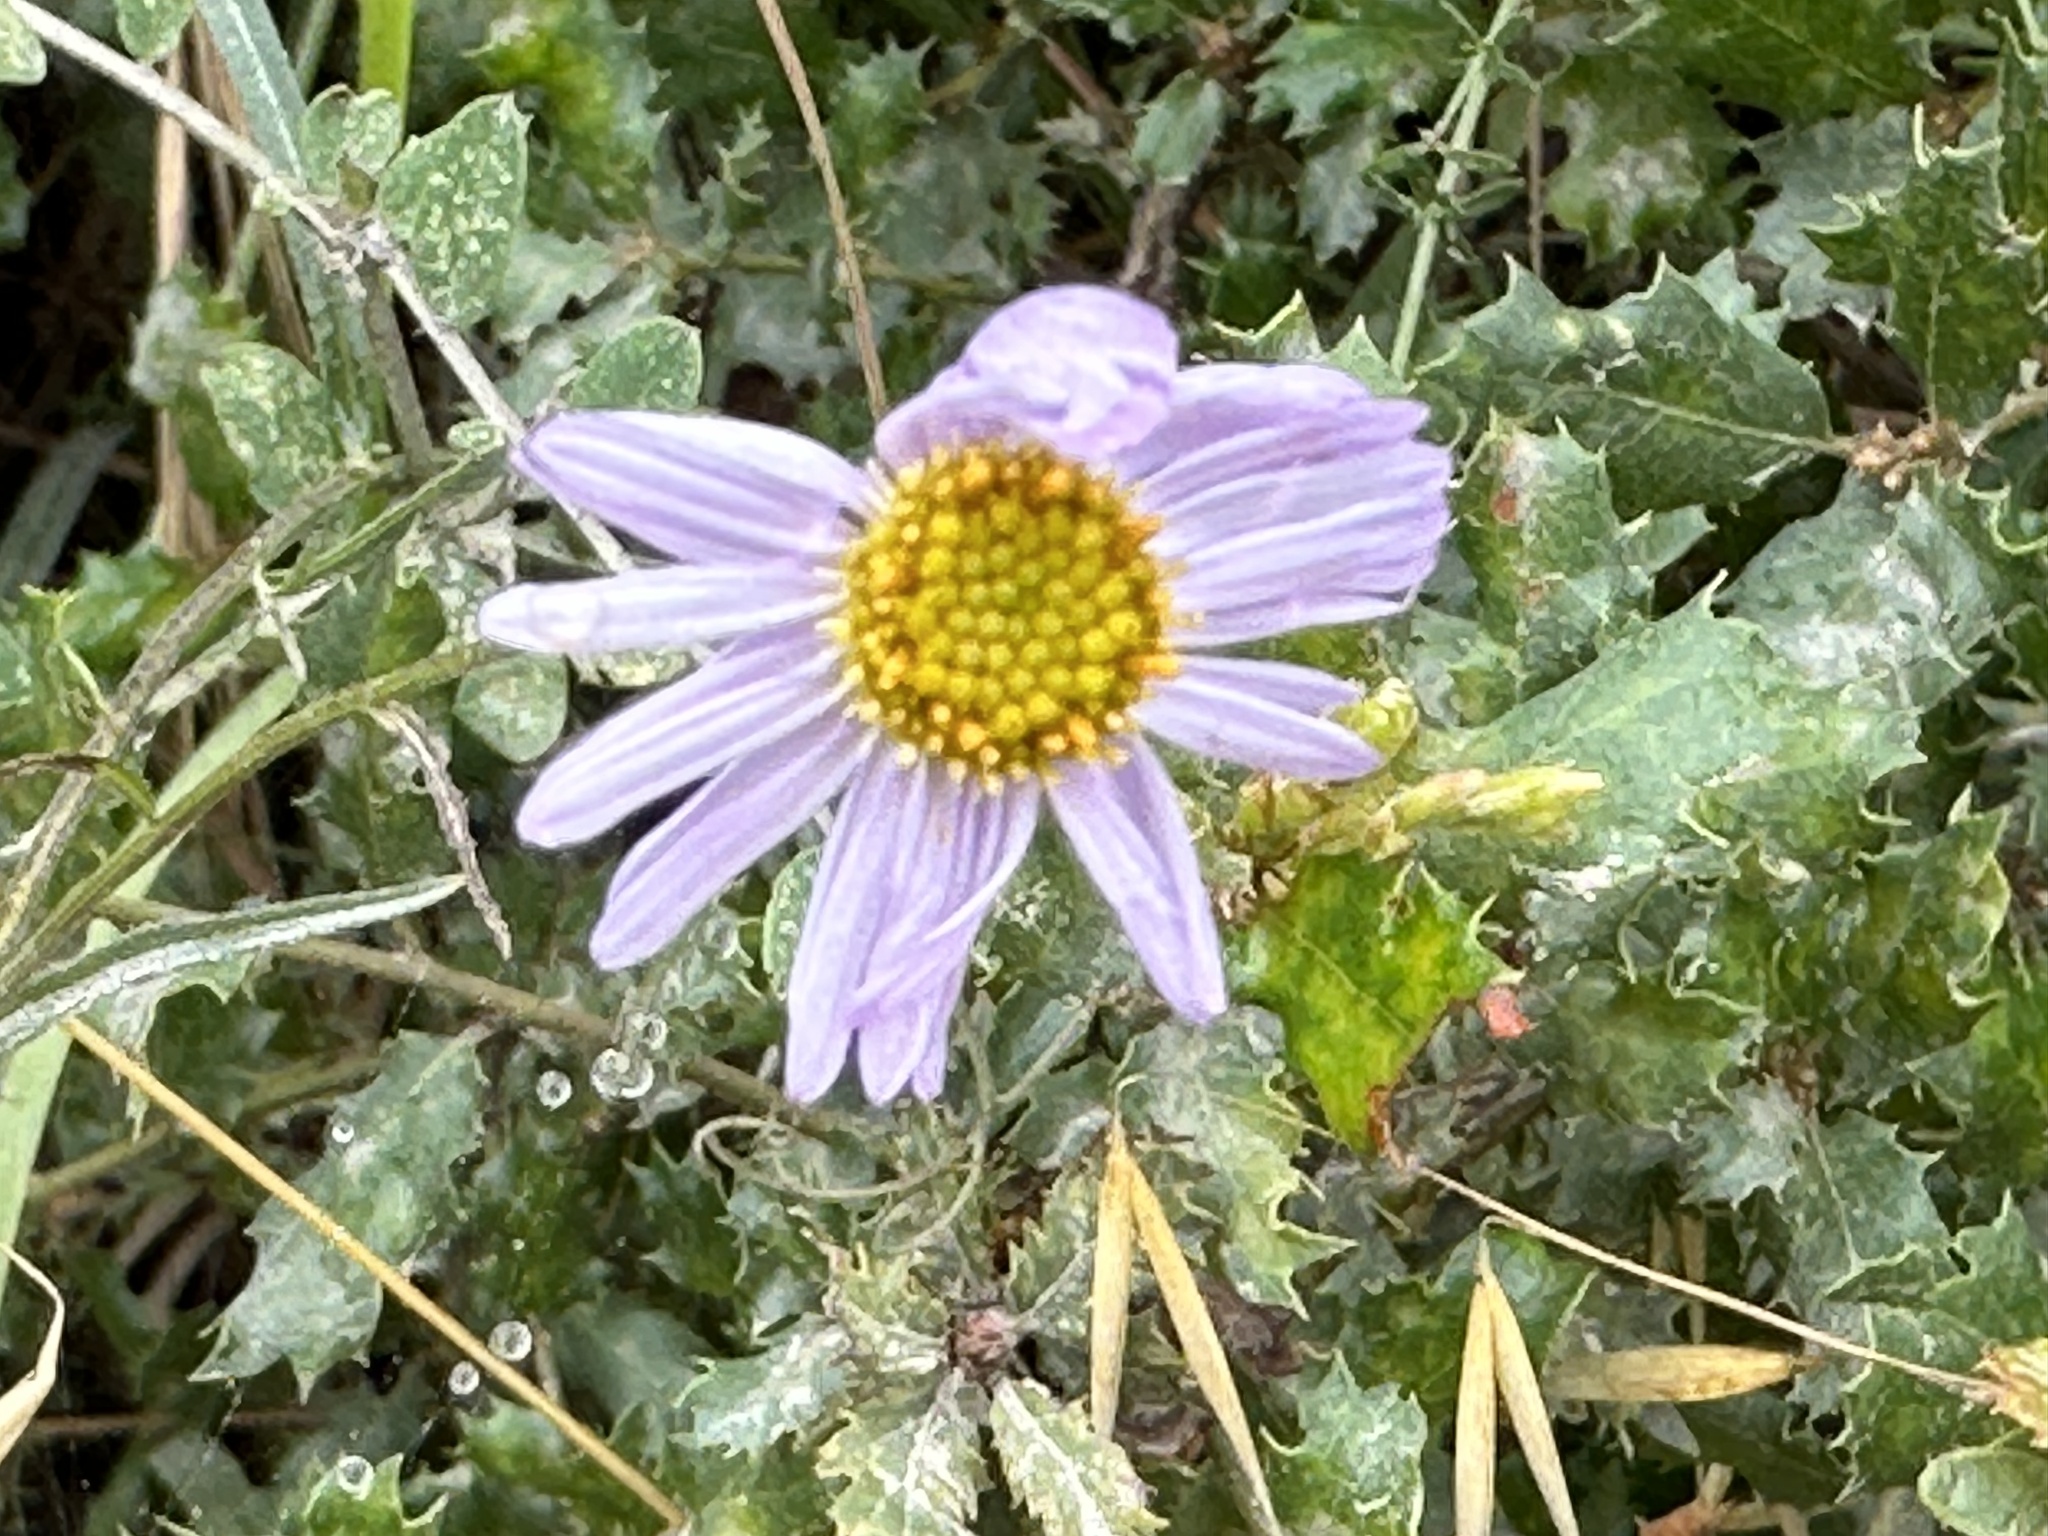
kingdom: Plantae
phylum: Tracheophyta
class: Magnoliopsida
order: Asterales
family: Asteraceae
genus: Erigeron
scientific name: Erigeron foliosus
